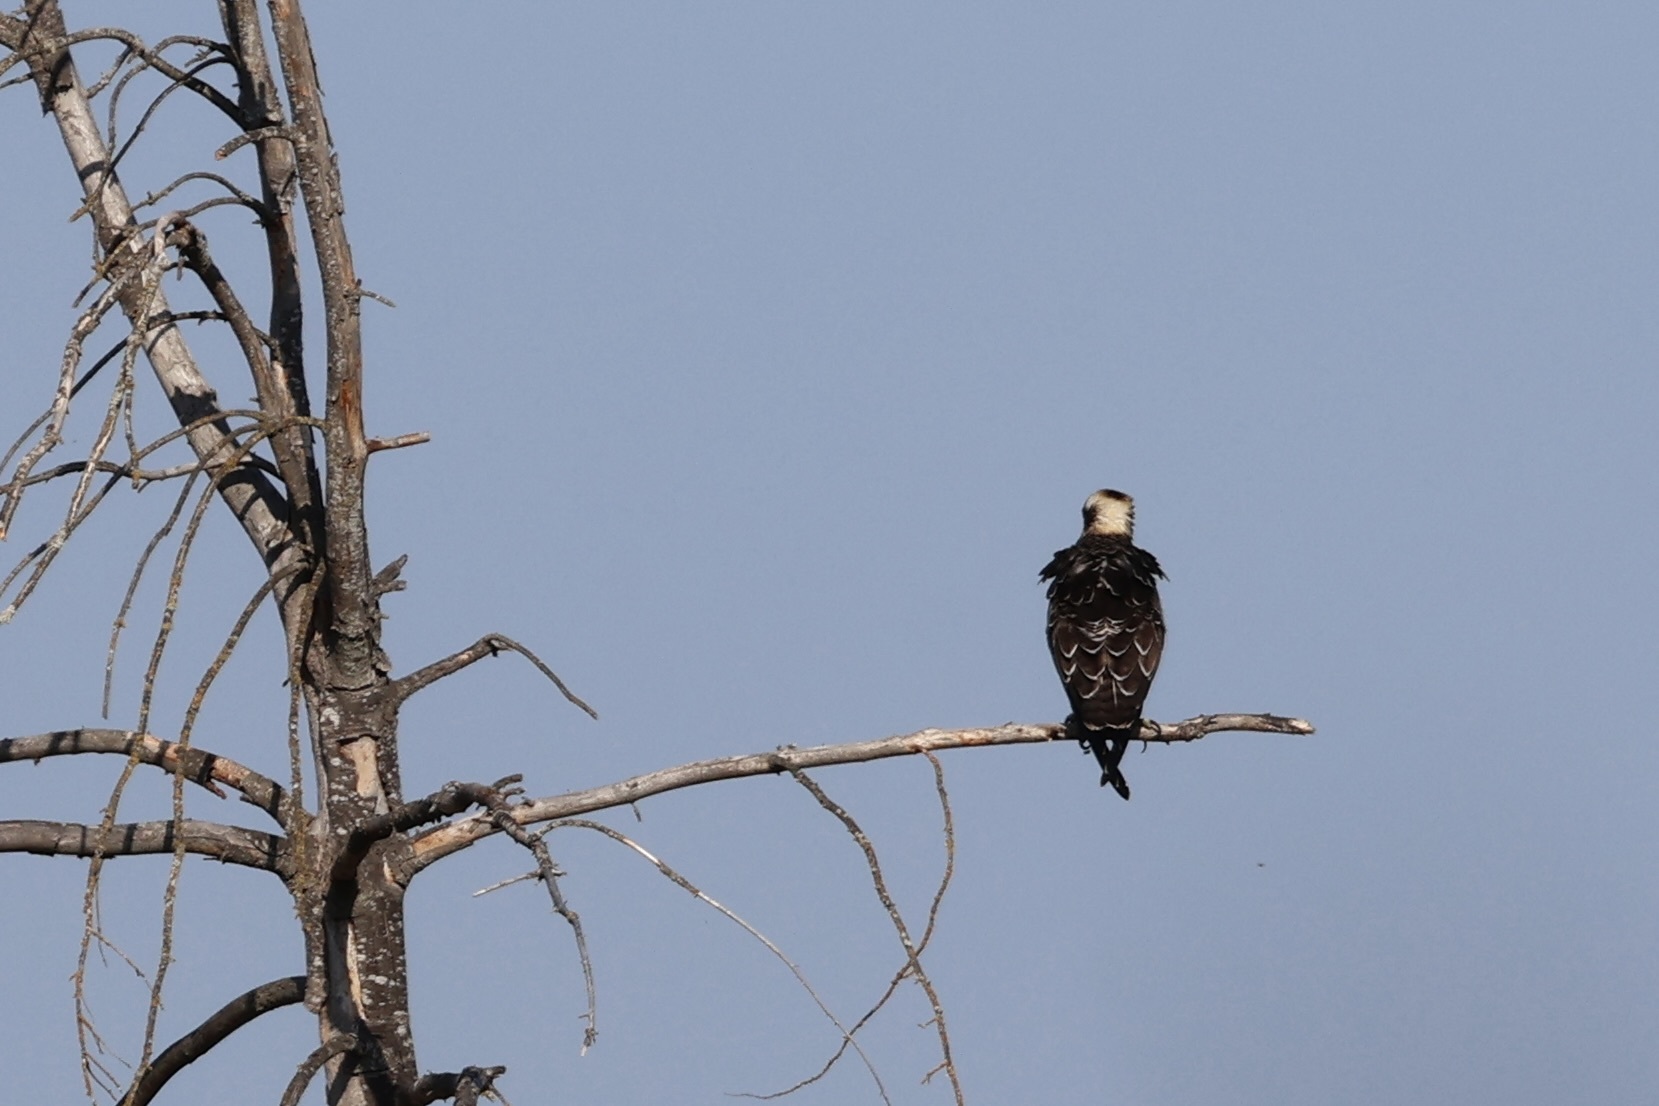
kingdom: Animalia
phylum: Chordata
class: Aves
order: Accipitriformes
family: Pandionidae
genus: Pandion
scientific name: Pandion haliaetus
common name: Osprey
